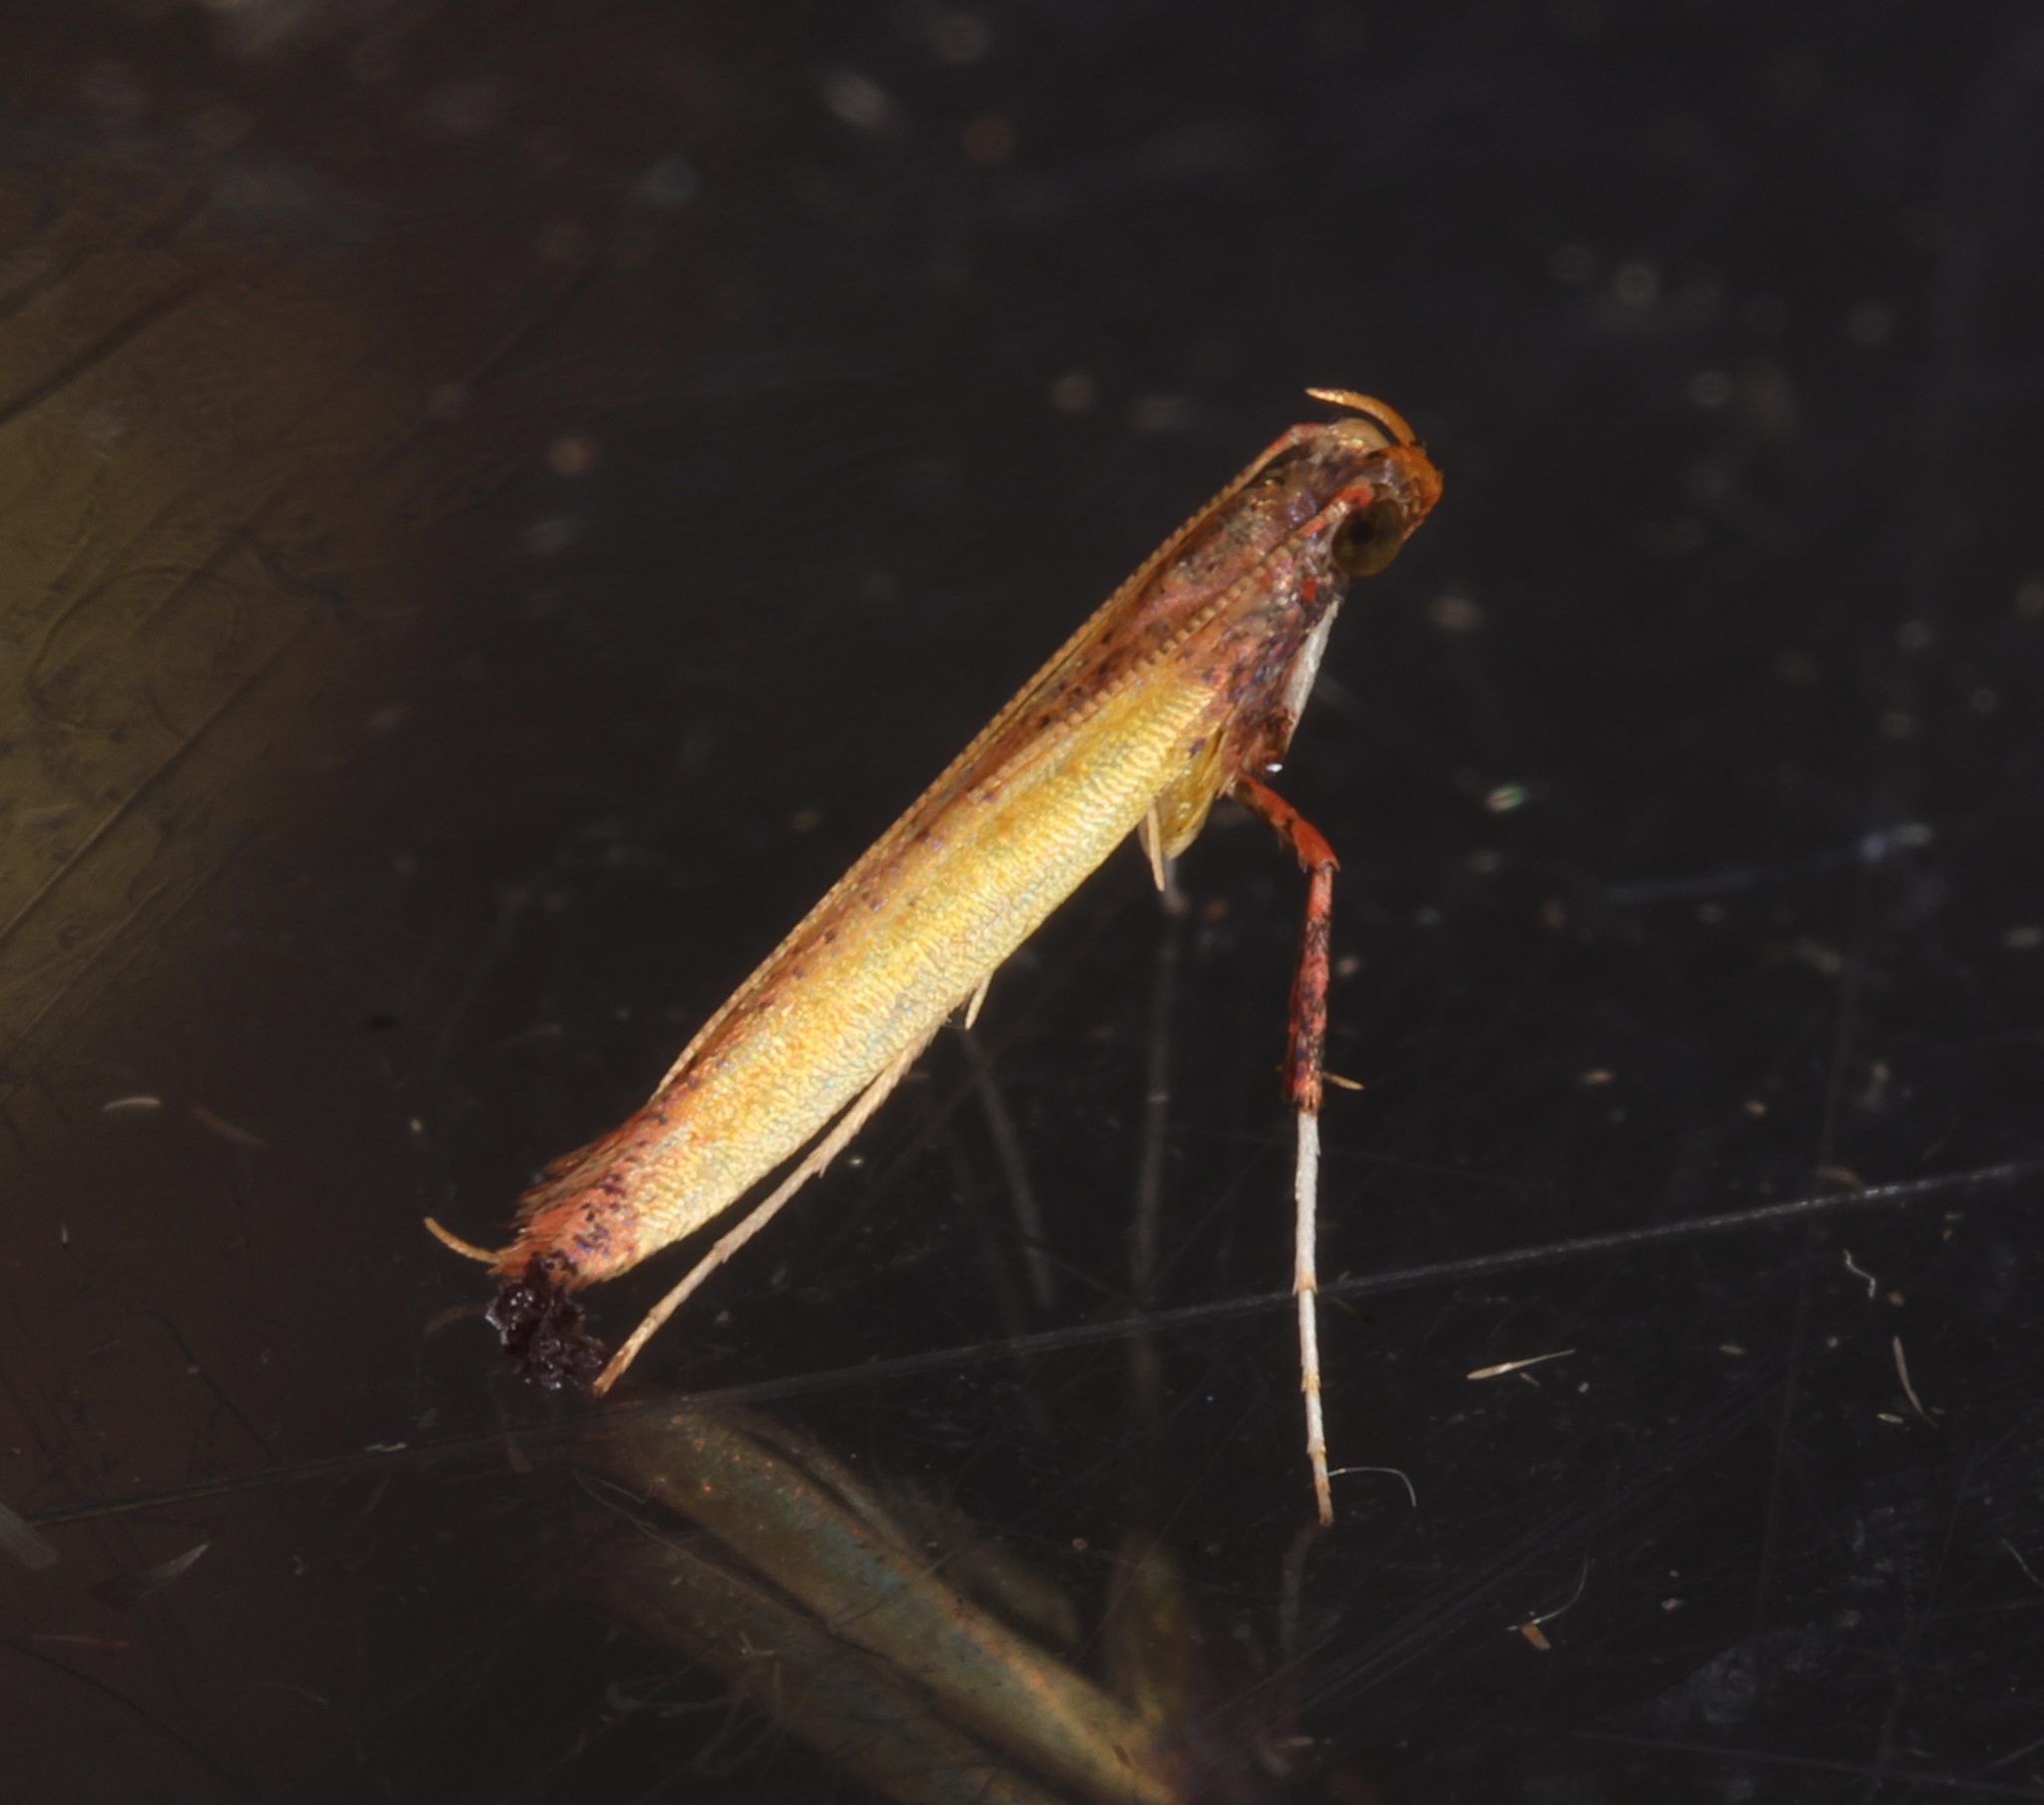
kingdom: Animalia
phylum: Arthropoda
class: Insecta
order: Lepidoptera
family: Gracillariidae
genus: Caloptilia
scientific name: Caloptilia recitata
